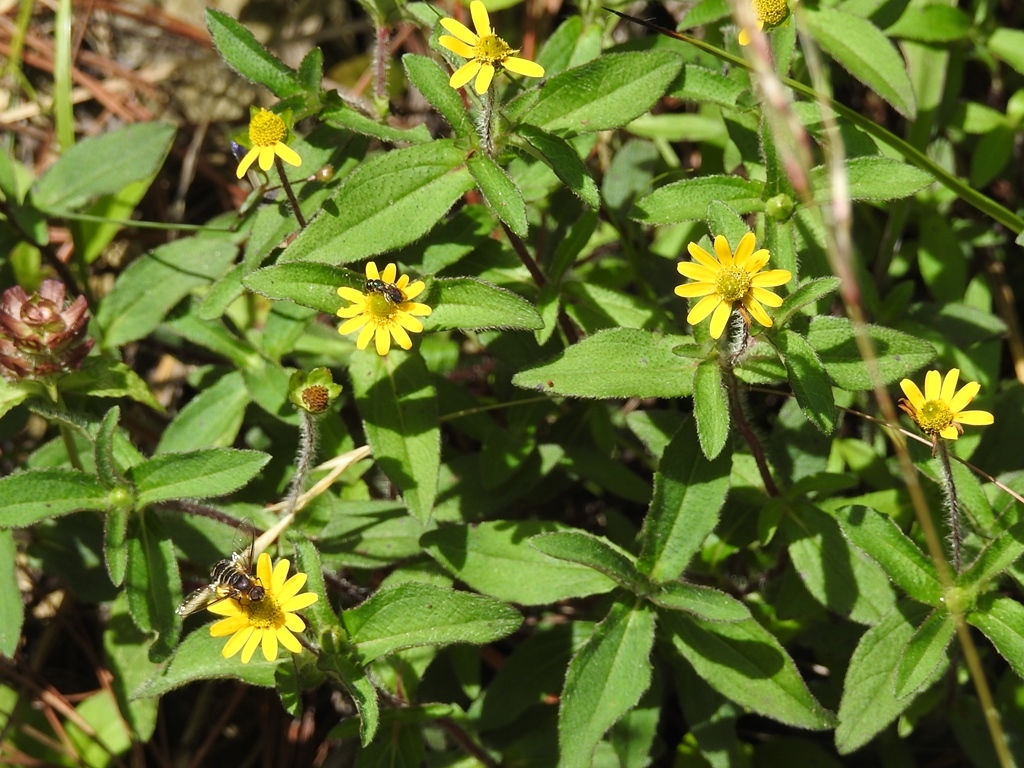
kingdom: Plantae
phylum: Tracheophyta
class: Magnoliopsida
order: Asterales
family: Asteraceae
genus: Acmella
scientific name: Acmella repens
